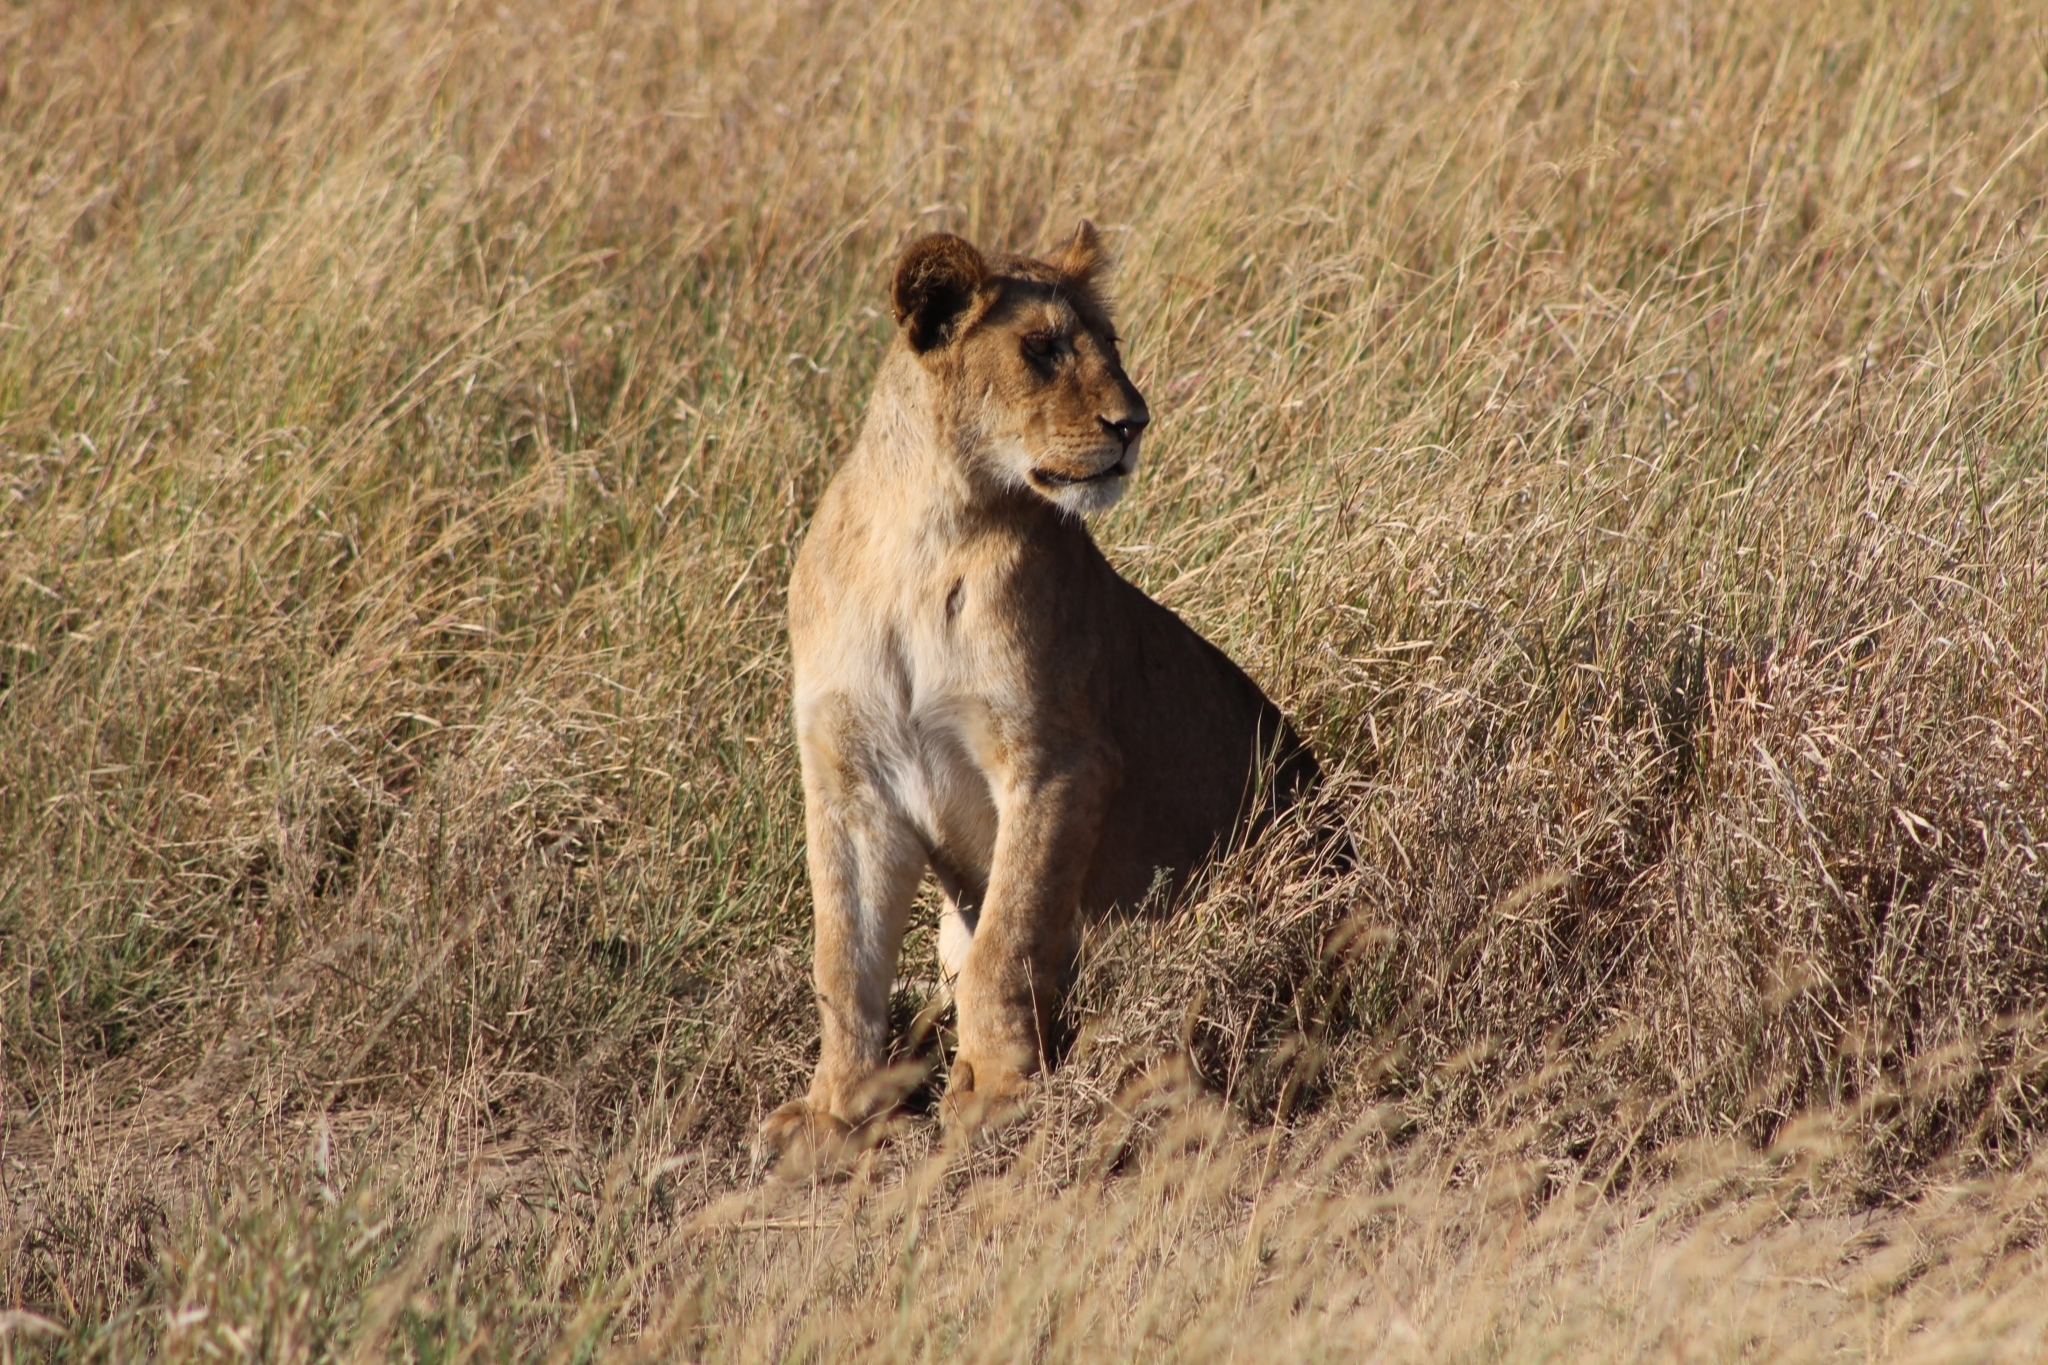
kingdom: Animalia
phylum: Chordata
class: Mammalia
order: Carnivora
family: Felidae
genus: Panthera
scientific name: Panthera leo
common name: Lion
